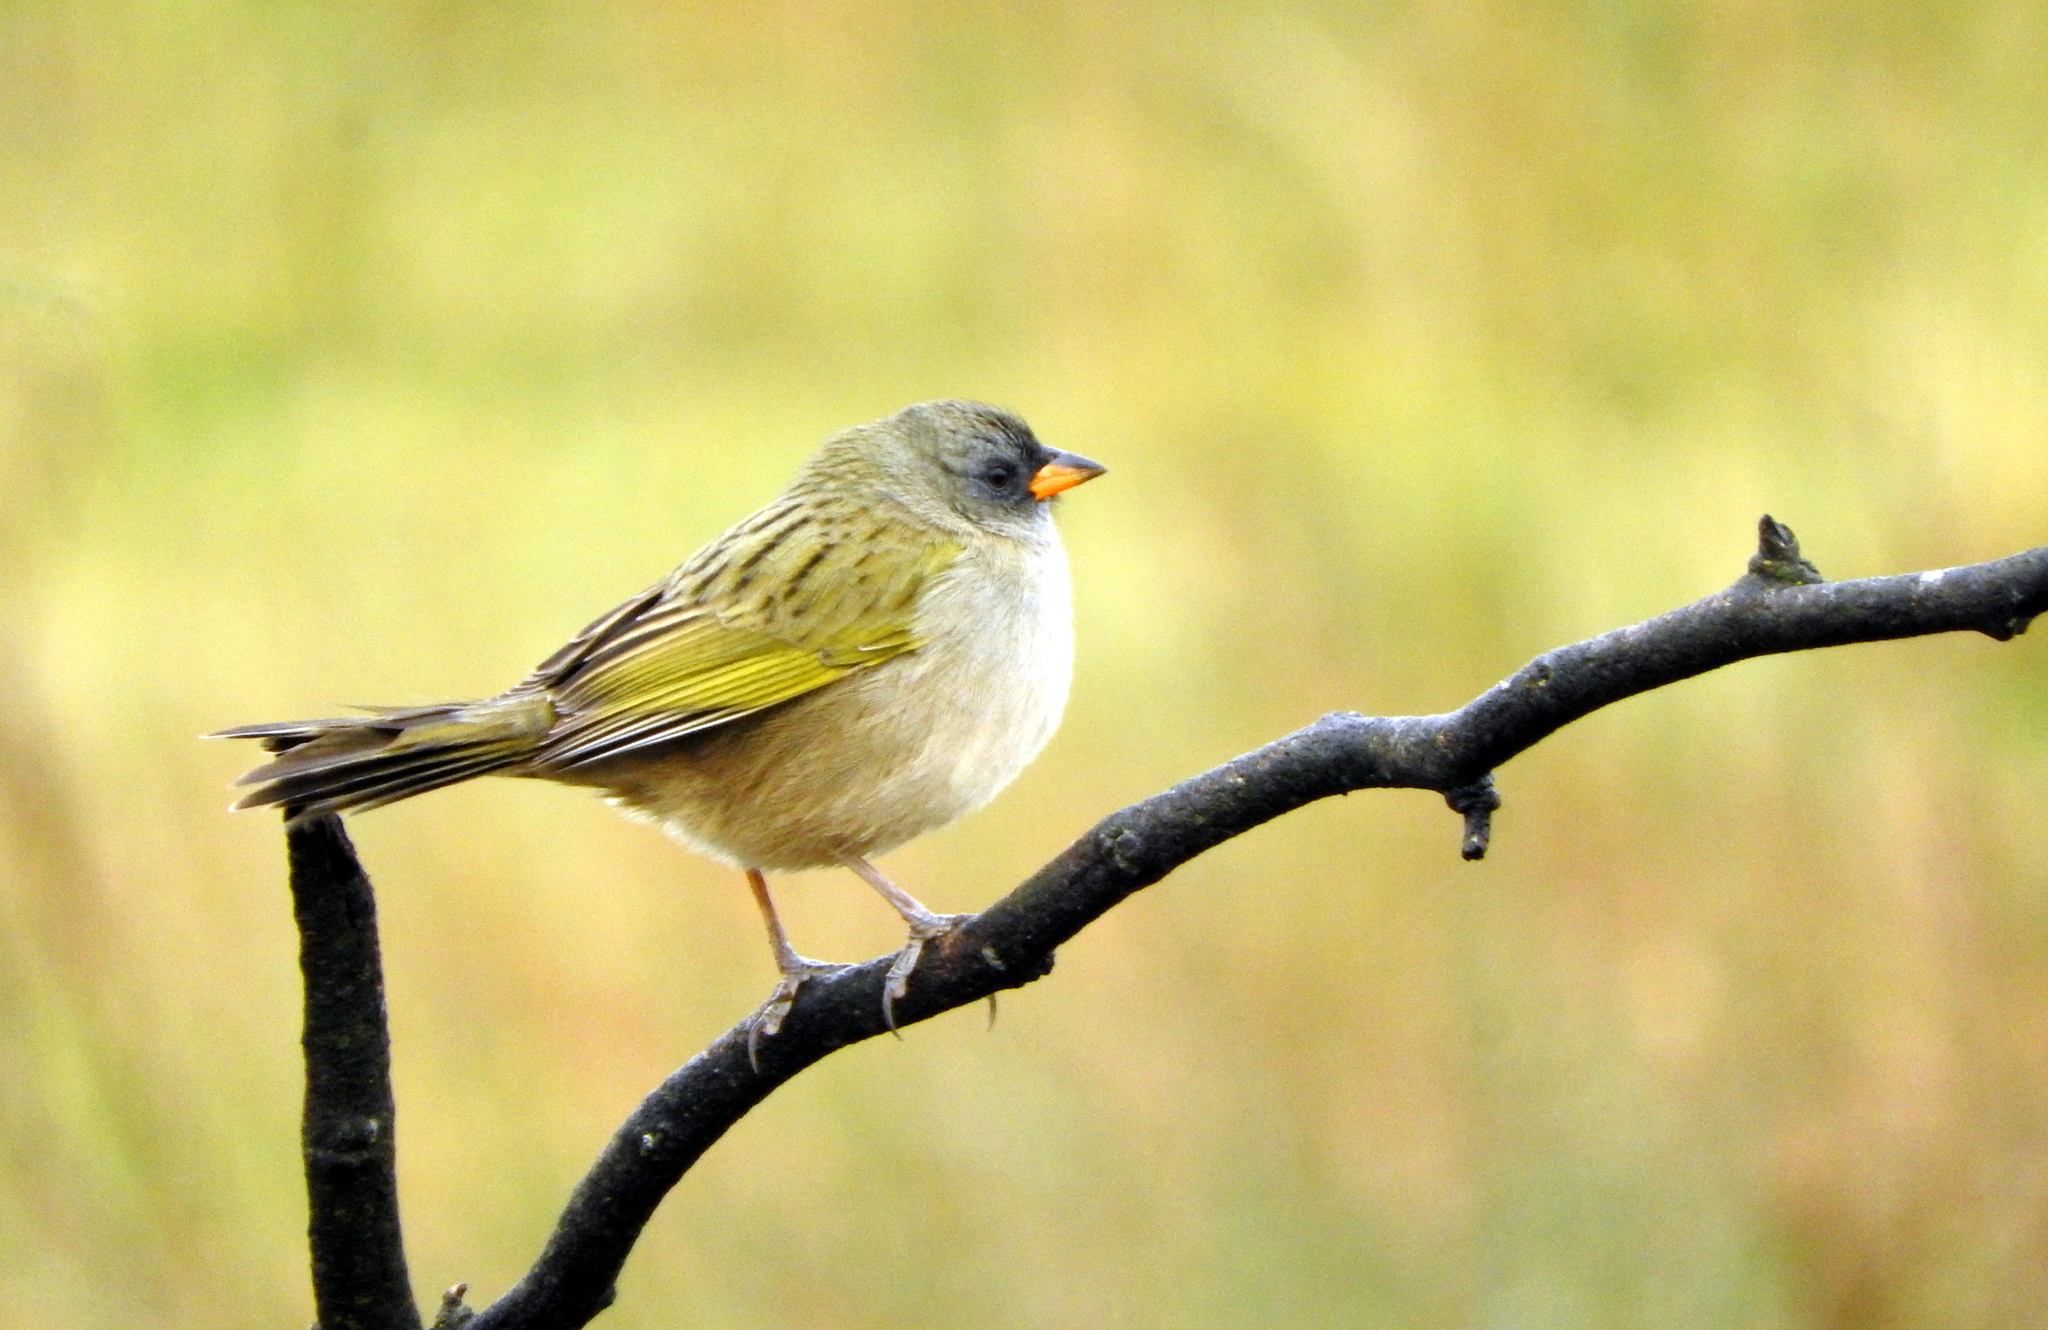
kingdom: Animalia
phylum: Chordata
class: Aves
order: Passeriformes
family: Thraupidae
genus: Embernagra
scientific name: Embernagra platensis
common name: Pampa finch
